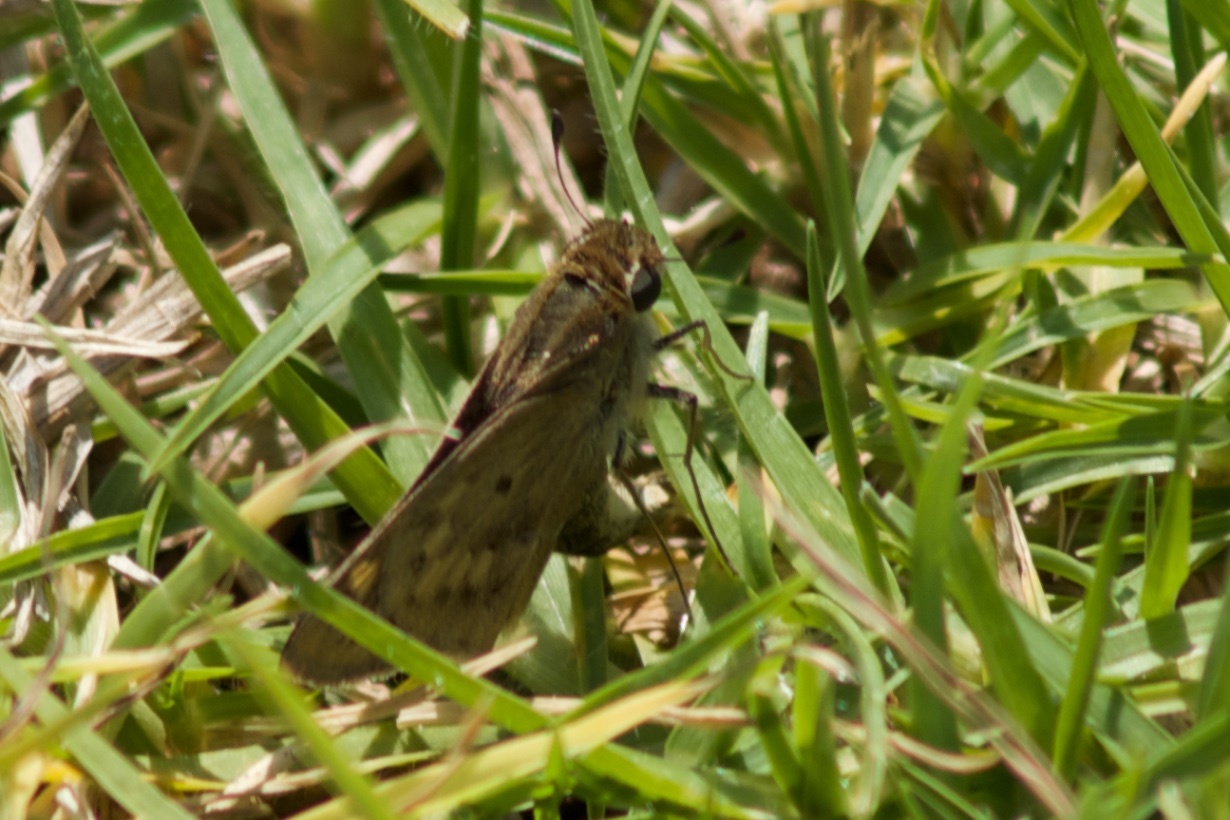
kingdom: Animalia
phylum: Arthropoda
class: Insecta
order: Lepidoptera
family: Hesperiidae
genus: Hylephila
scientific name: Hylephila phyleus
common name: Fiery skipper
